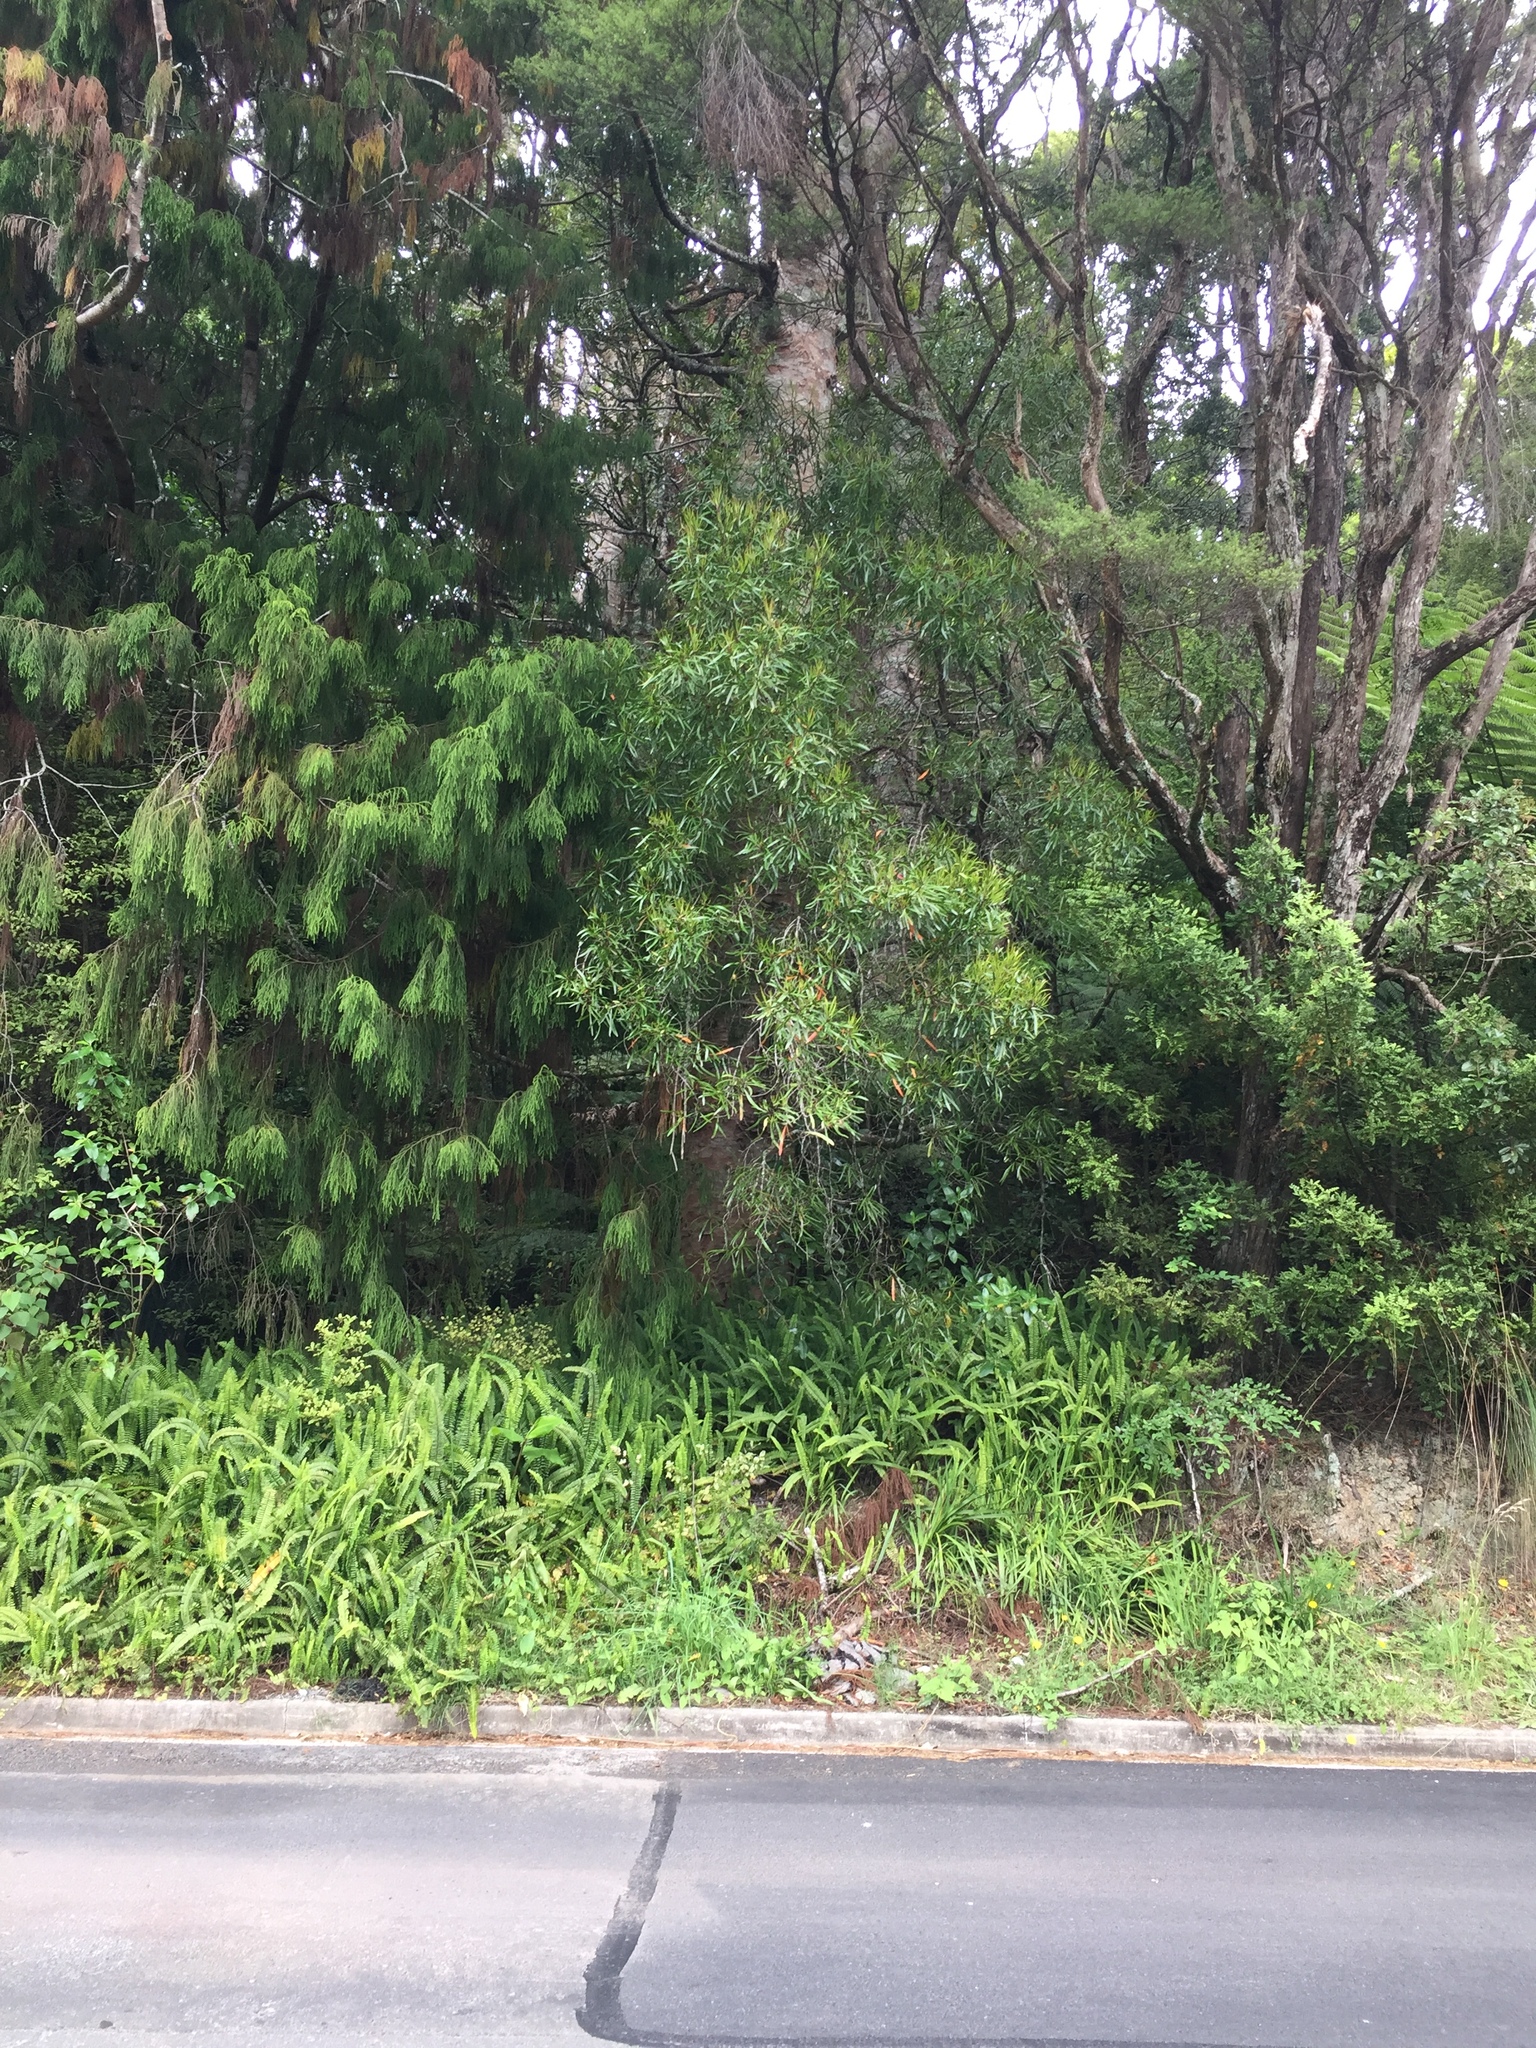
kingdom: Plantae
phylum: Tracheophyta
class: Magnoliopsida
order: Proteales
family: Proteaceae
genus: Toronia
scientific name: Toronia toru
